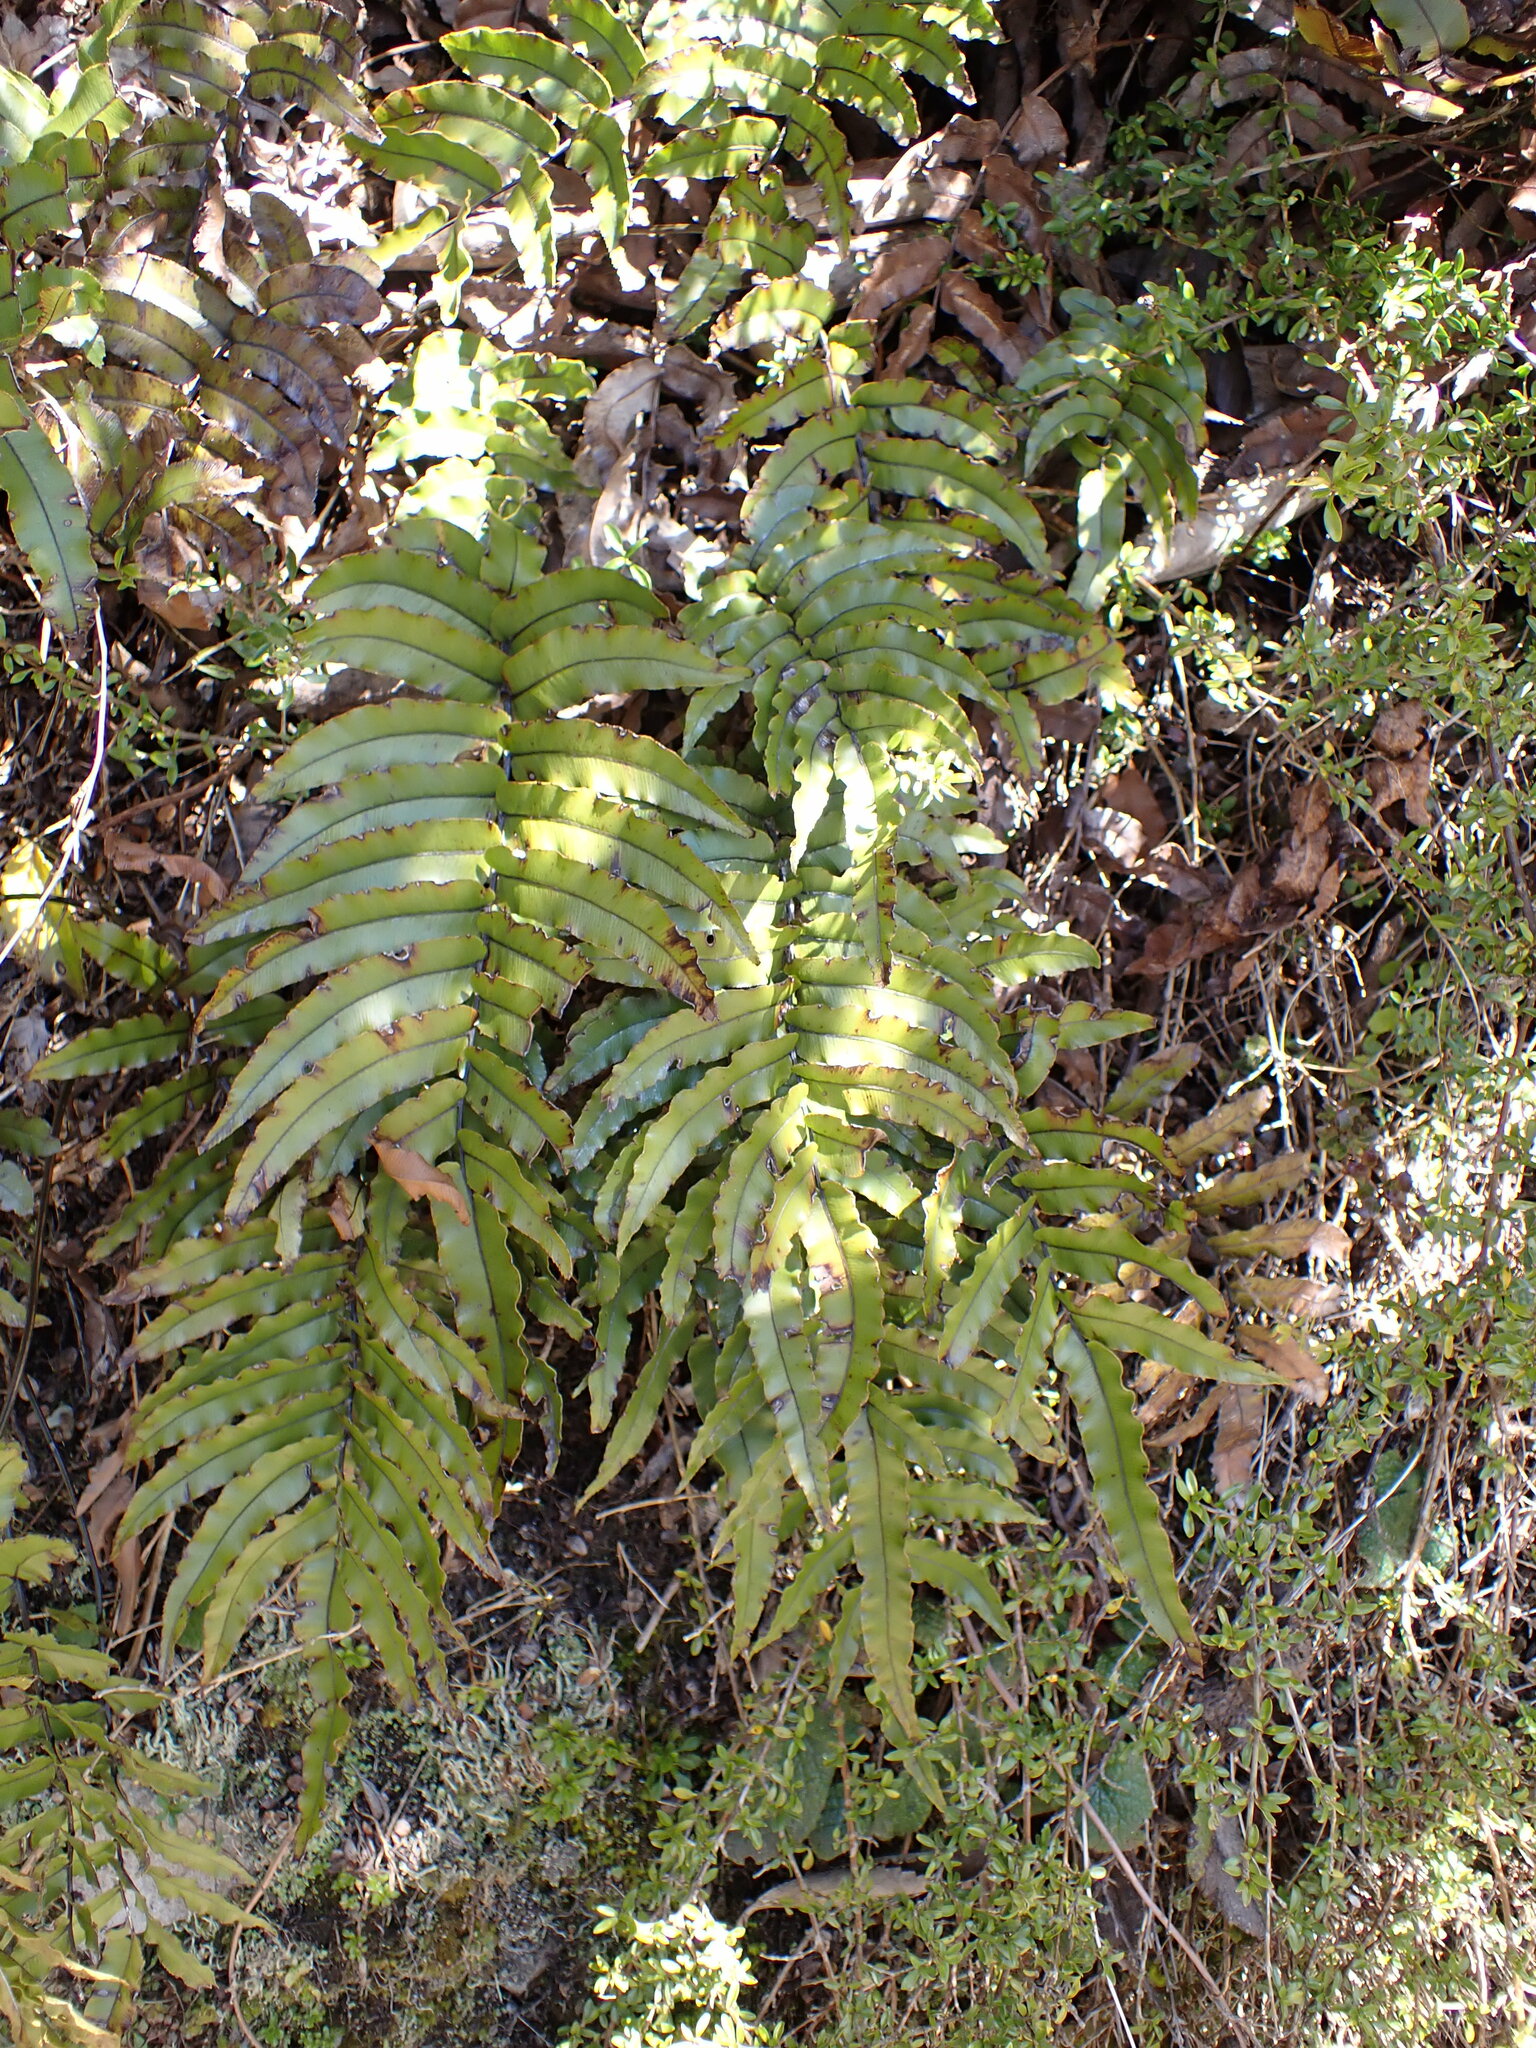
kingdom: Plantae
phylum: Tracheophyta
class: Polypodiopsida
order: Polypodiales
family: Blechnaceae
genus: Parablechnum
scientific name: Parablechnum montanum
